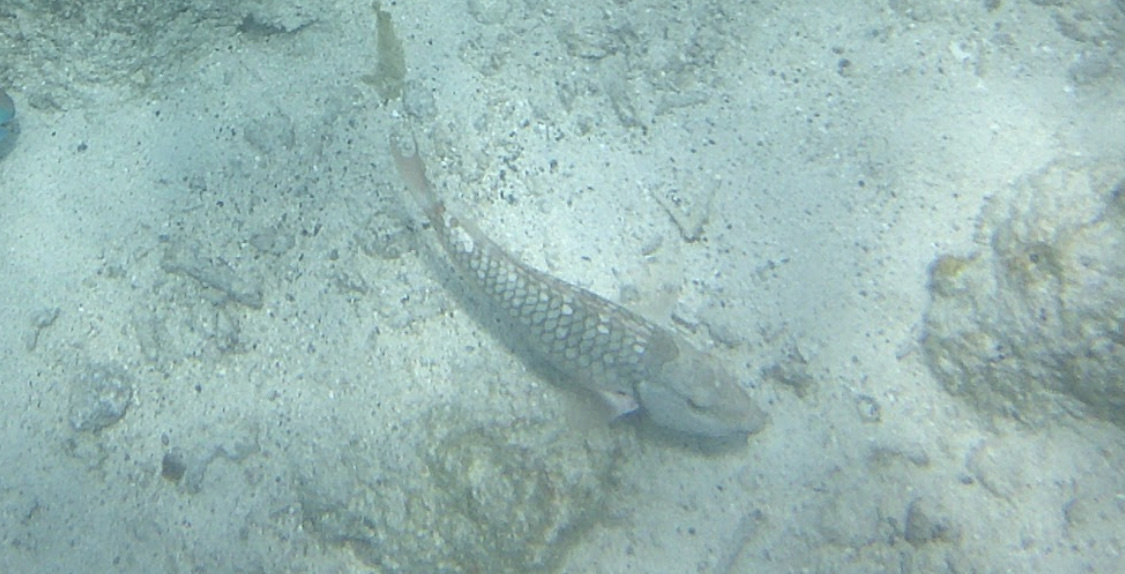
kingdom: Animalia
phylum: Chordata
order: Perciformes
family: Scaridae
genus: Sparisoma
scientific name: Sparisoma viride
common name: Stoplight parrotfish
